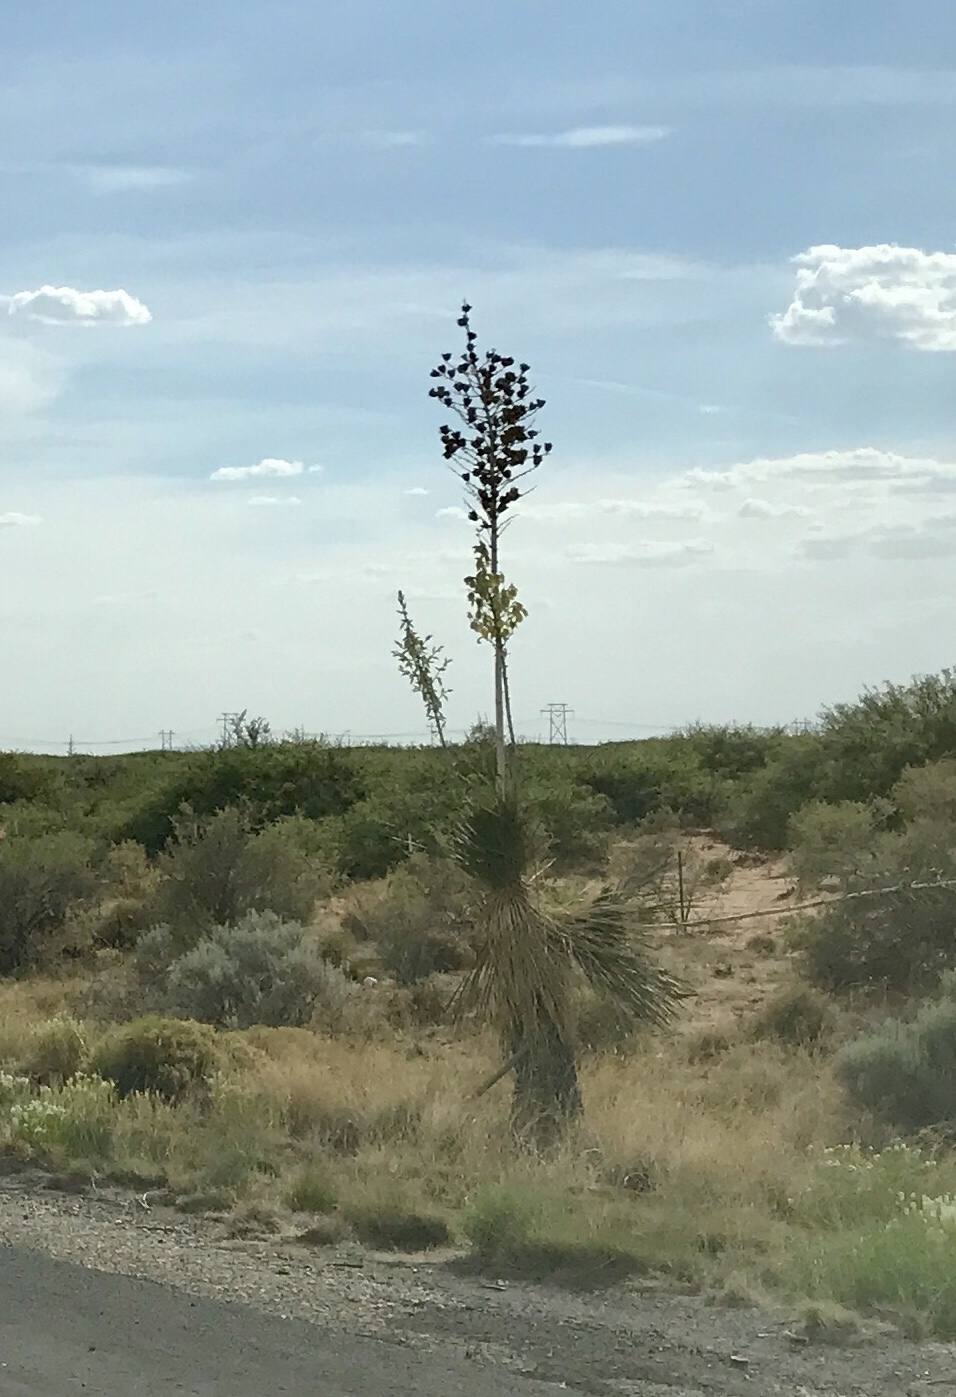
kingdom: Plantae
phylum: Tracheophyta
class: Liliopsida
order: Asparagales
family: Asparagaceae
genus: Yucca
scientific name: Yucca elata
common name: Palmella
